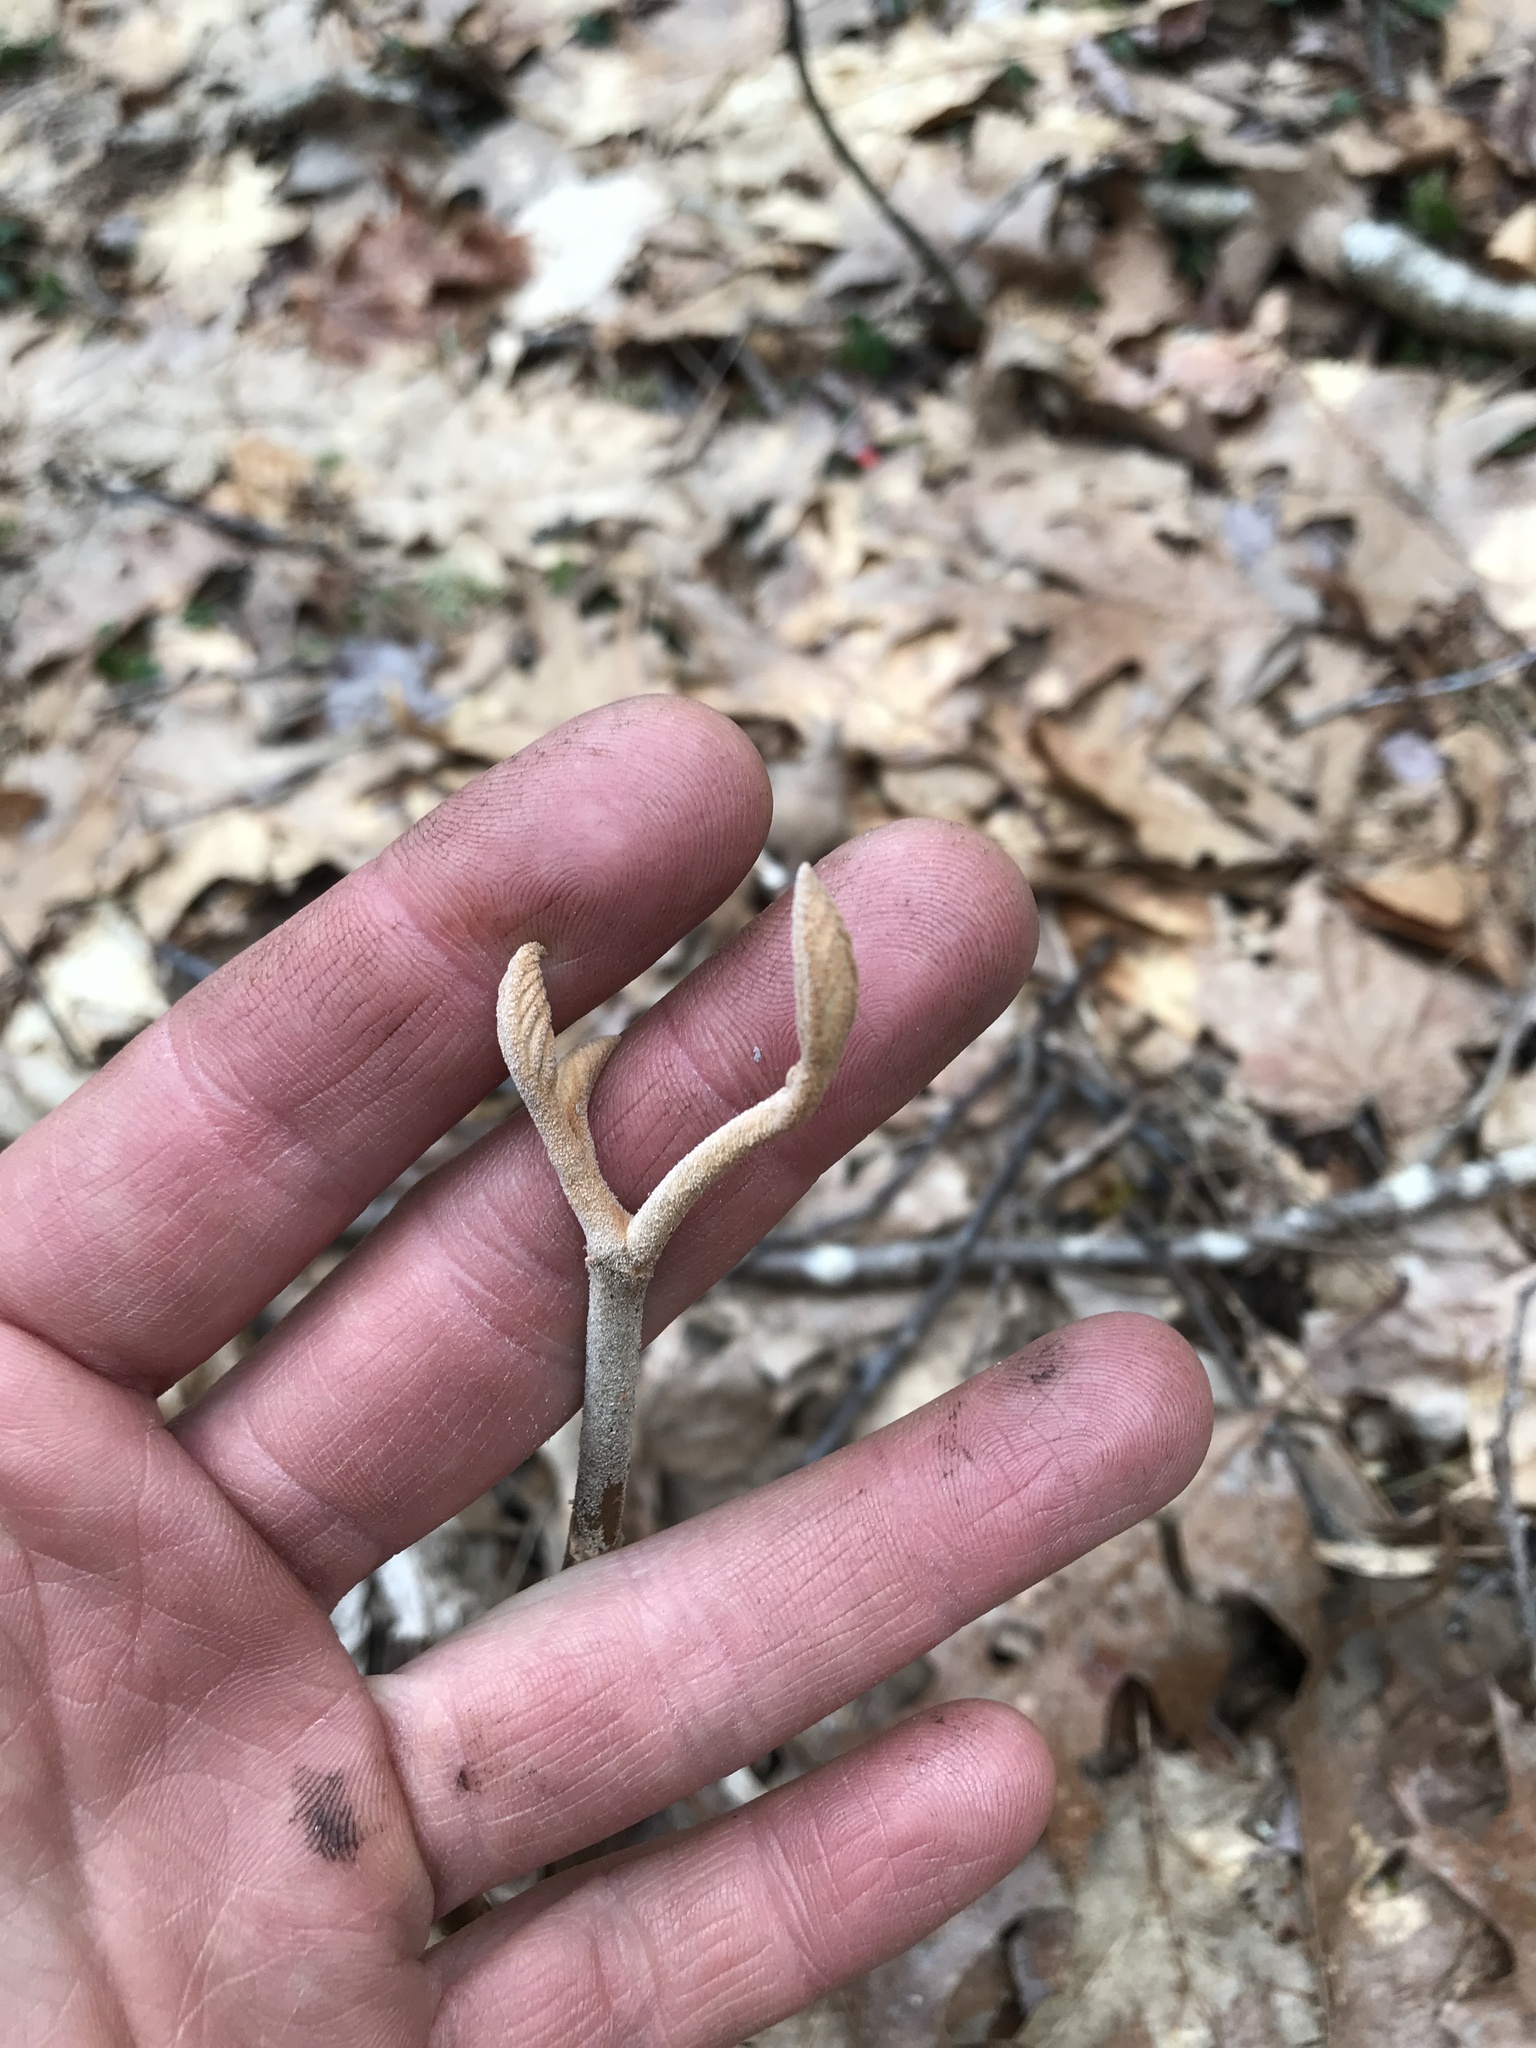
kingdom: Plantae
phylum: Tracheophyta
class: Magnoliopsida
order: Dipsacales
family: Viburnaceae
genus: Viburnum
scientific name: Viburnum lantanoides
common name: Hobblebush
